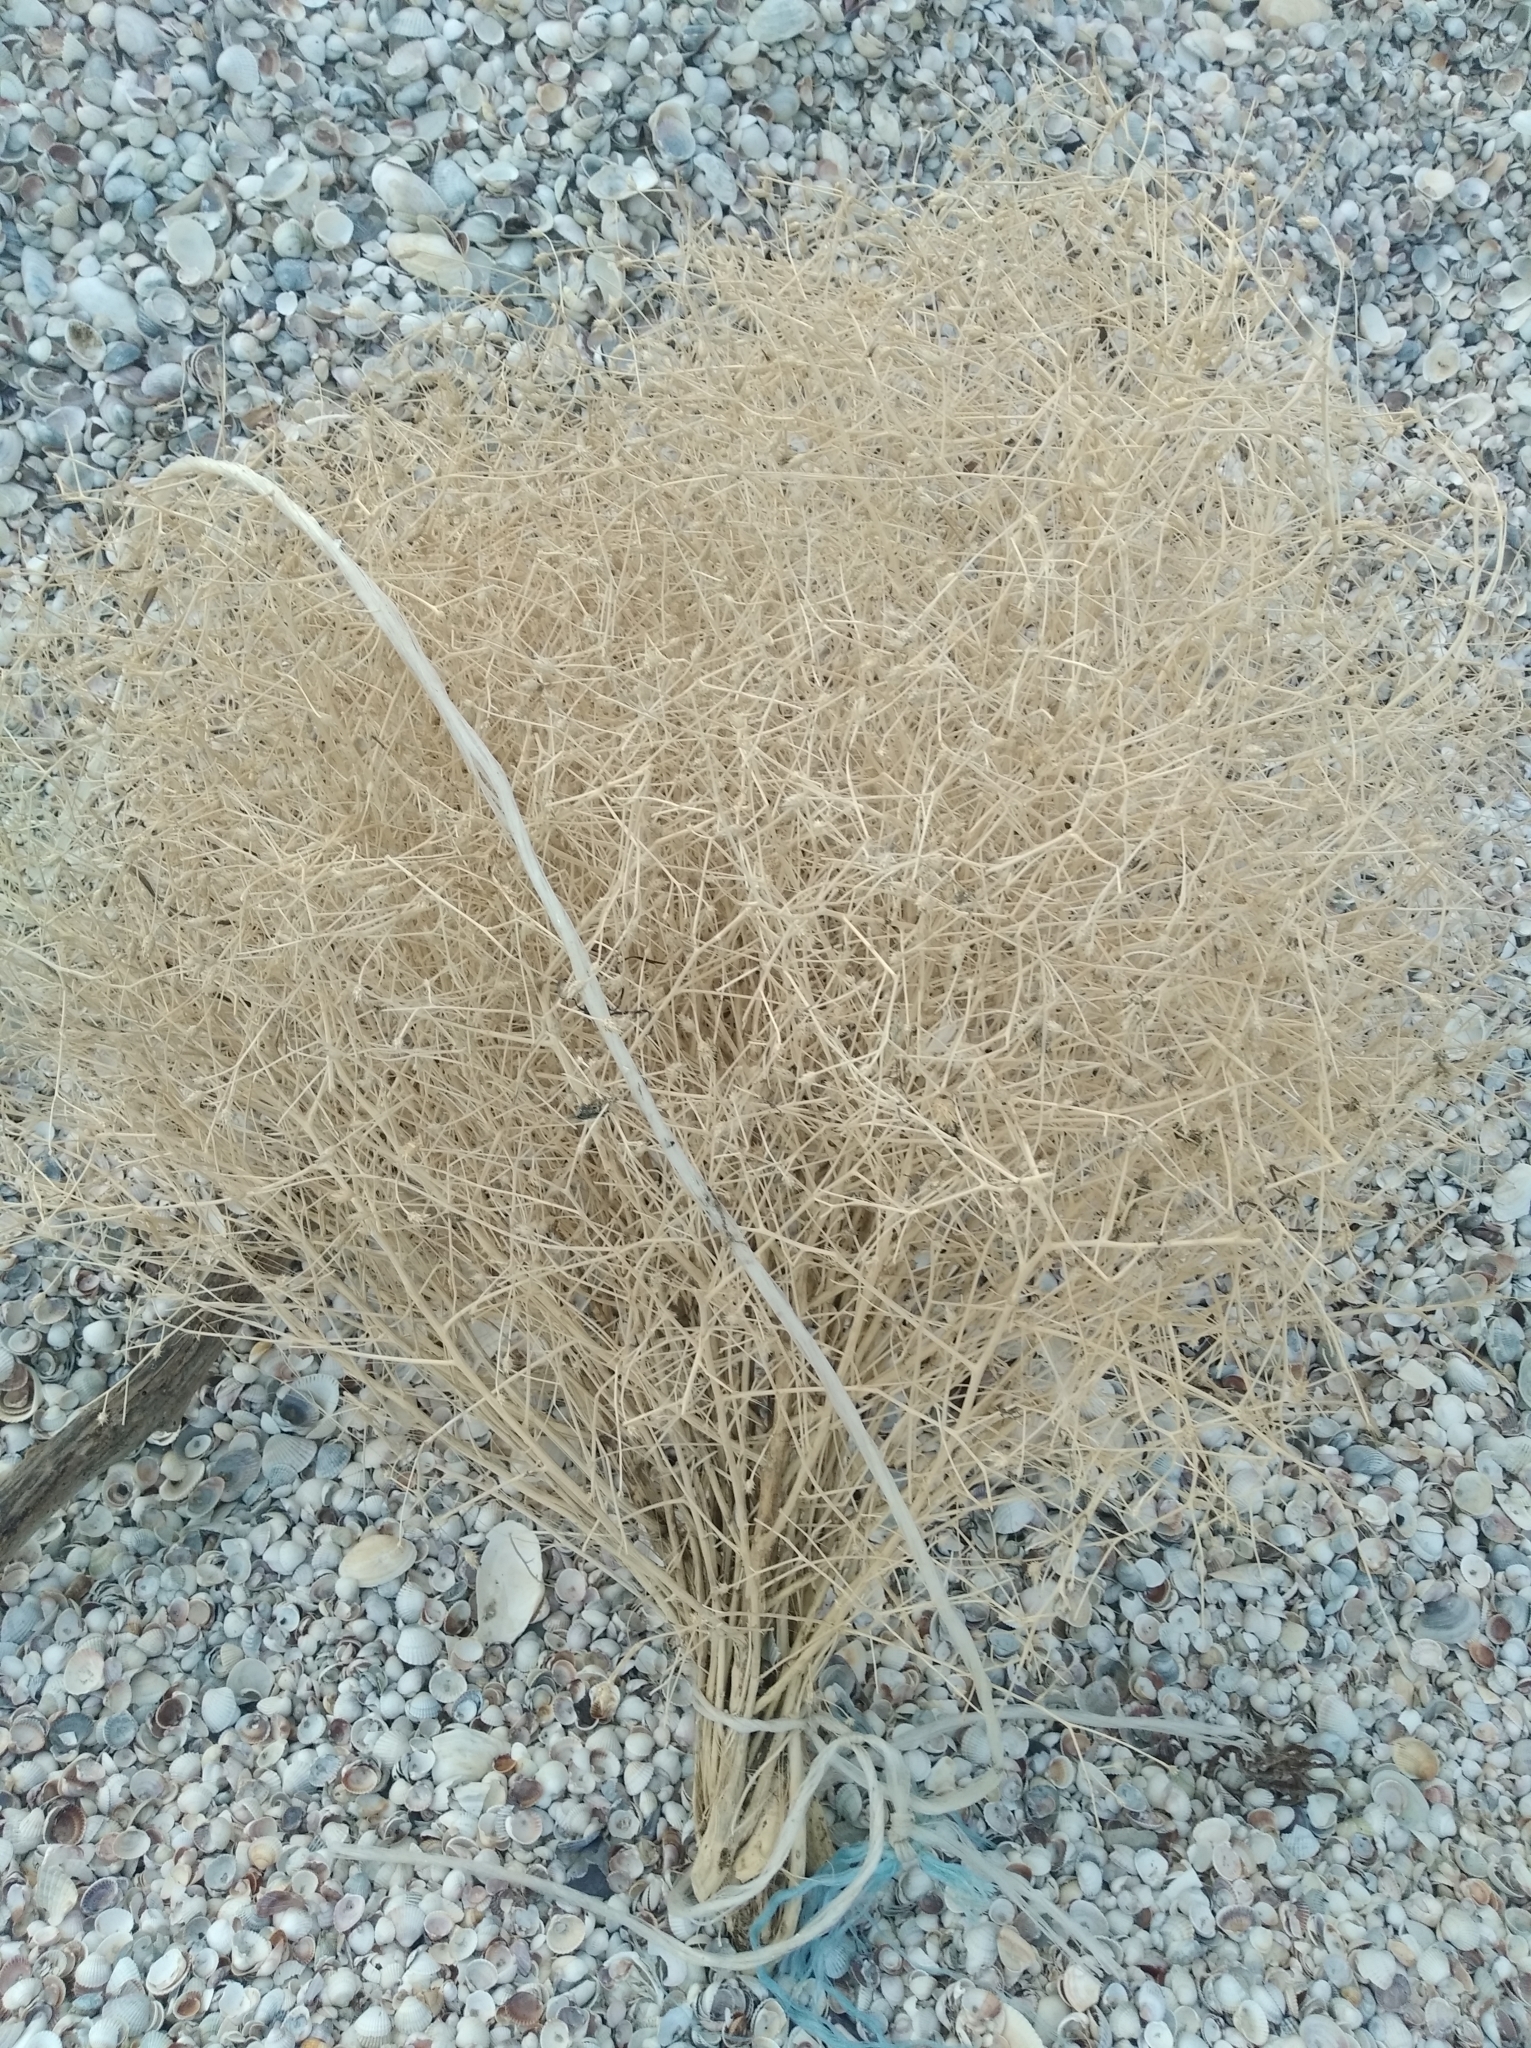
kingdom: Plantae
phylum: Tracheophyta
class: Magnoliopsida
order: Asterales
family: Asteraceae
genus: Centaurea
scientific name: Centaurea diffusa
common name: Diffuse knapweed
